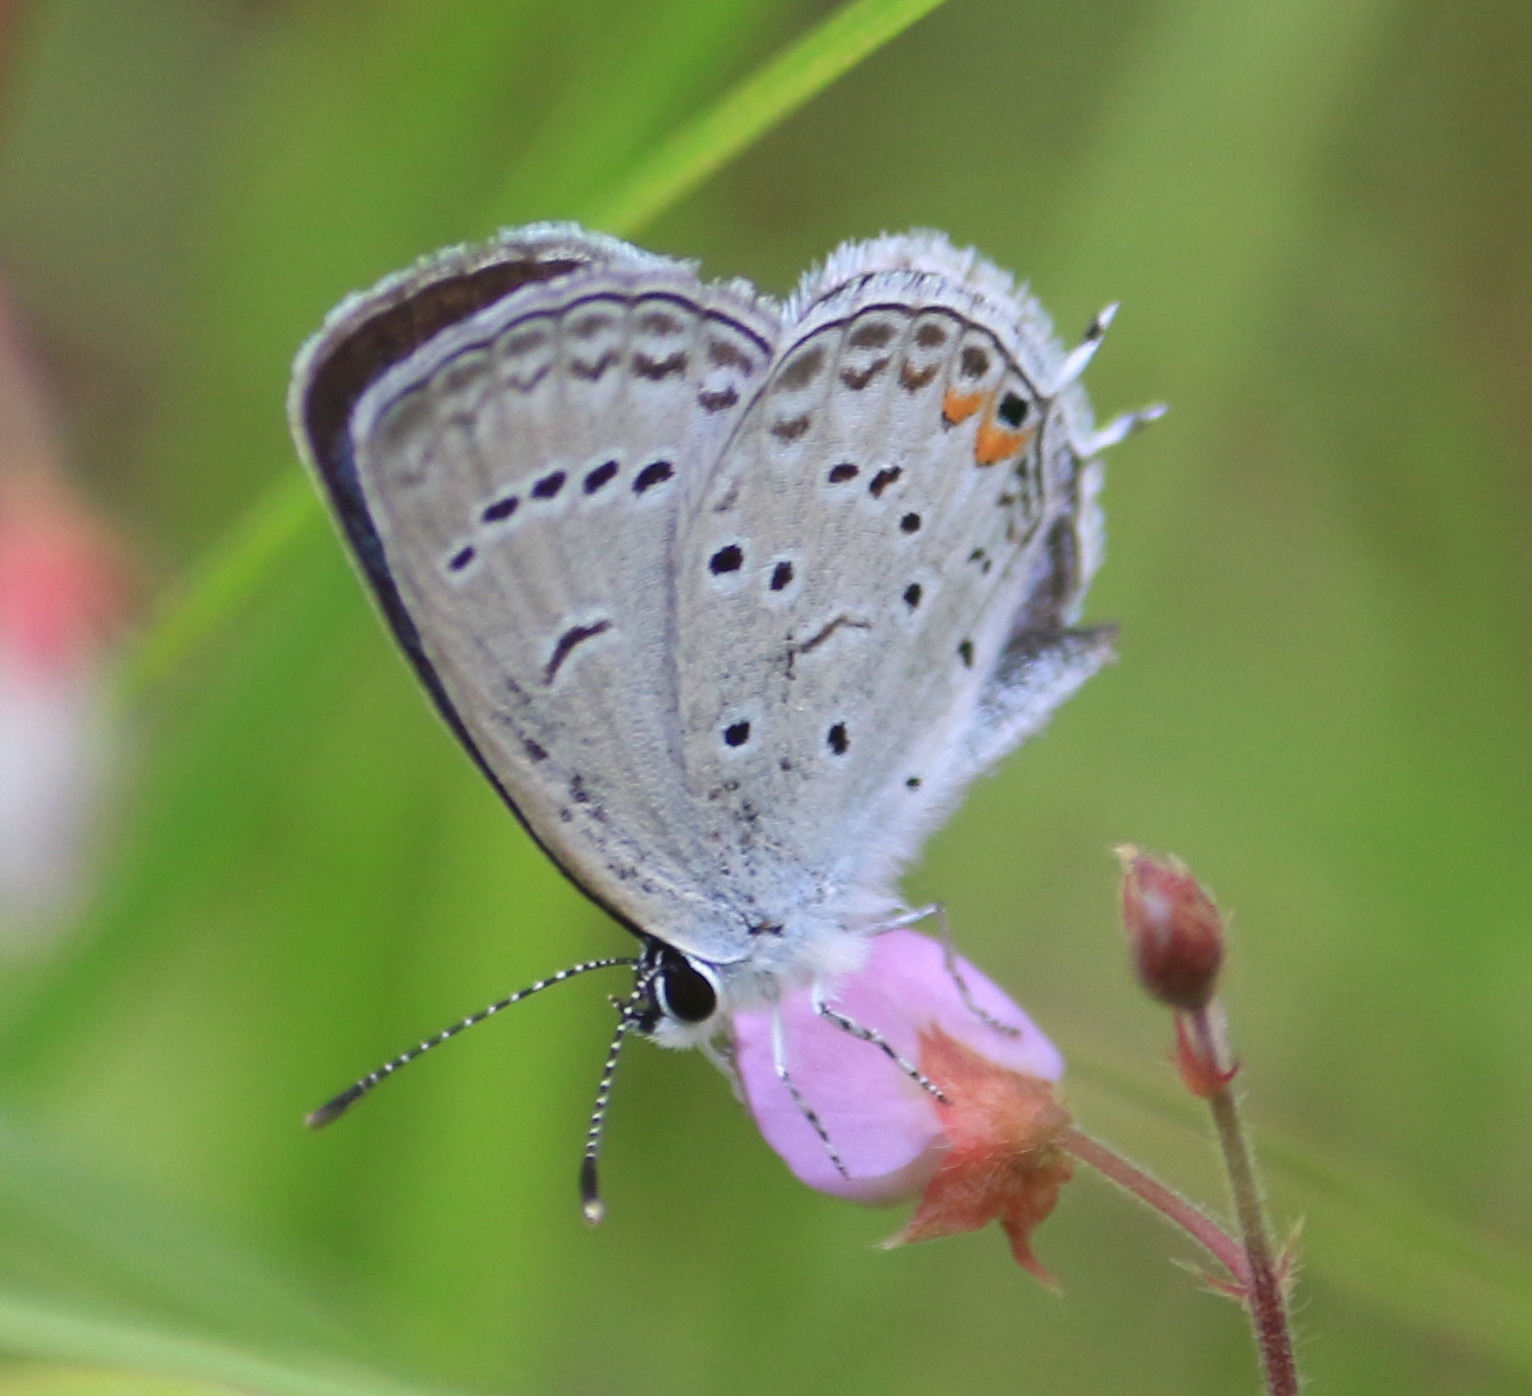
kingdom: Animalia
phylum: Arthropoda
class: Insecta
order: Lepidoptera
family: Lycaenidae
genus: Elkalyce
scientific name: Elkalyce comyntas
